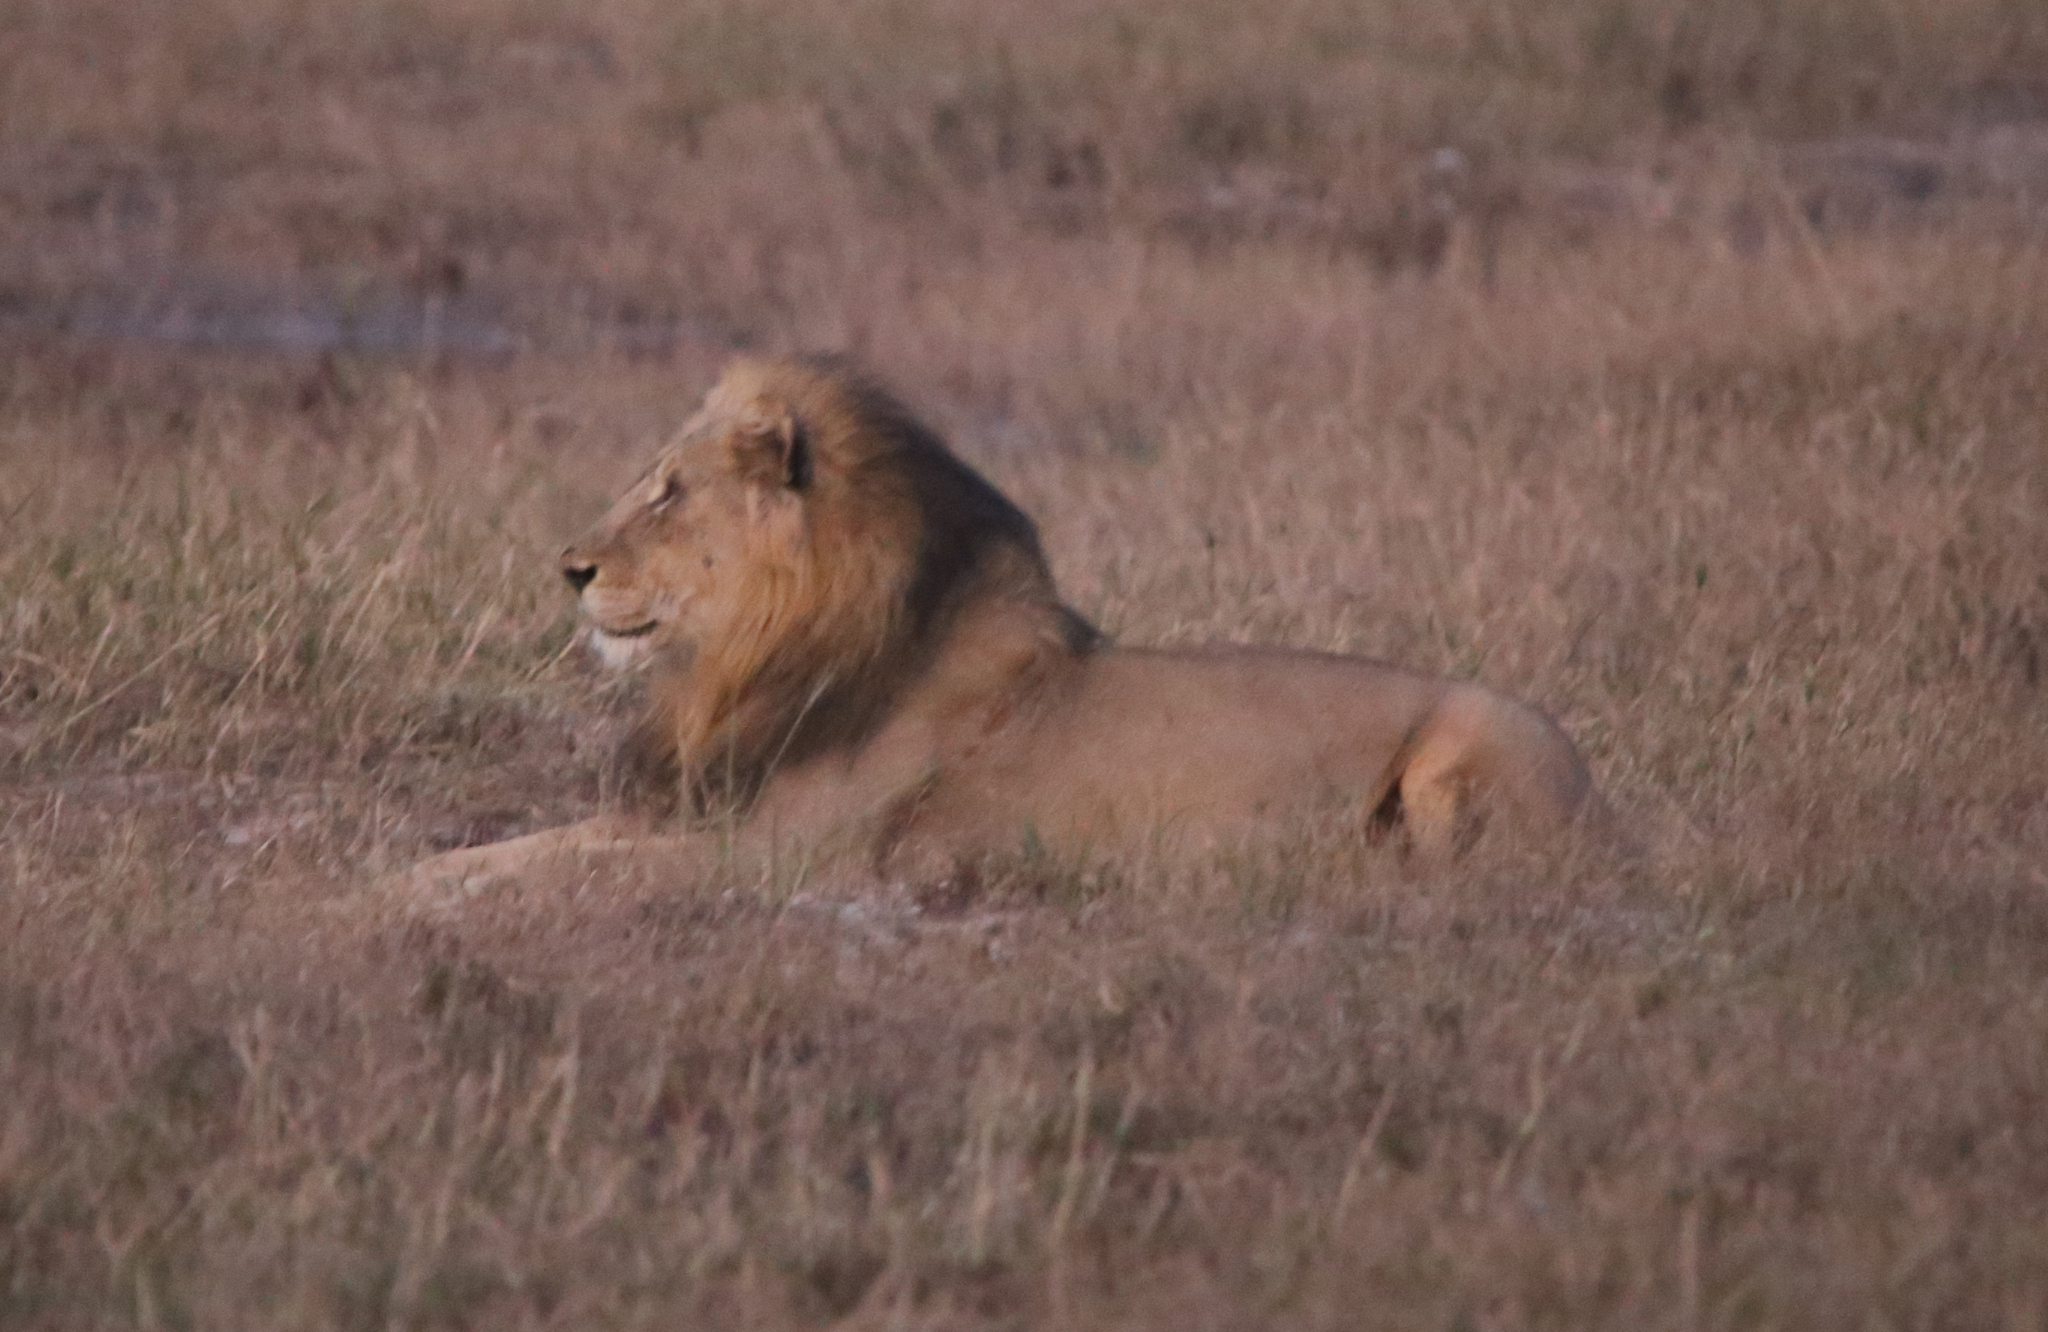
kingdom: Animalia
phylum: Chordata
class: Mammalia
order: Carnivora
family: Felidae
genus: Panthera
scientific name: Panthera leo
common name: Lion
